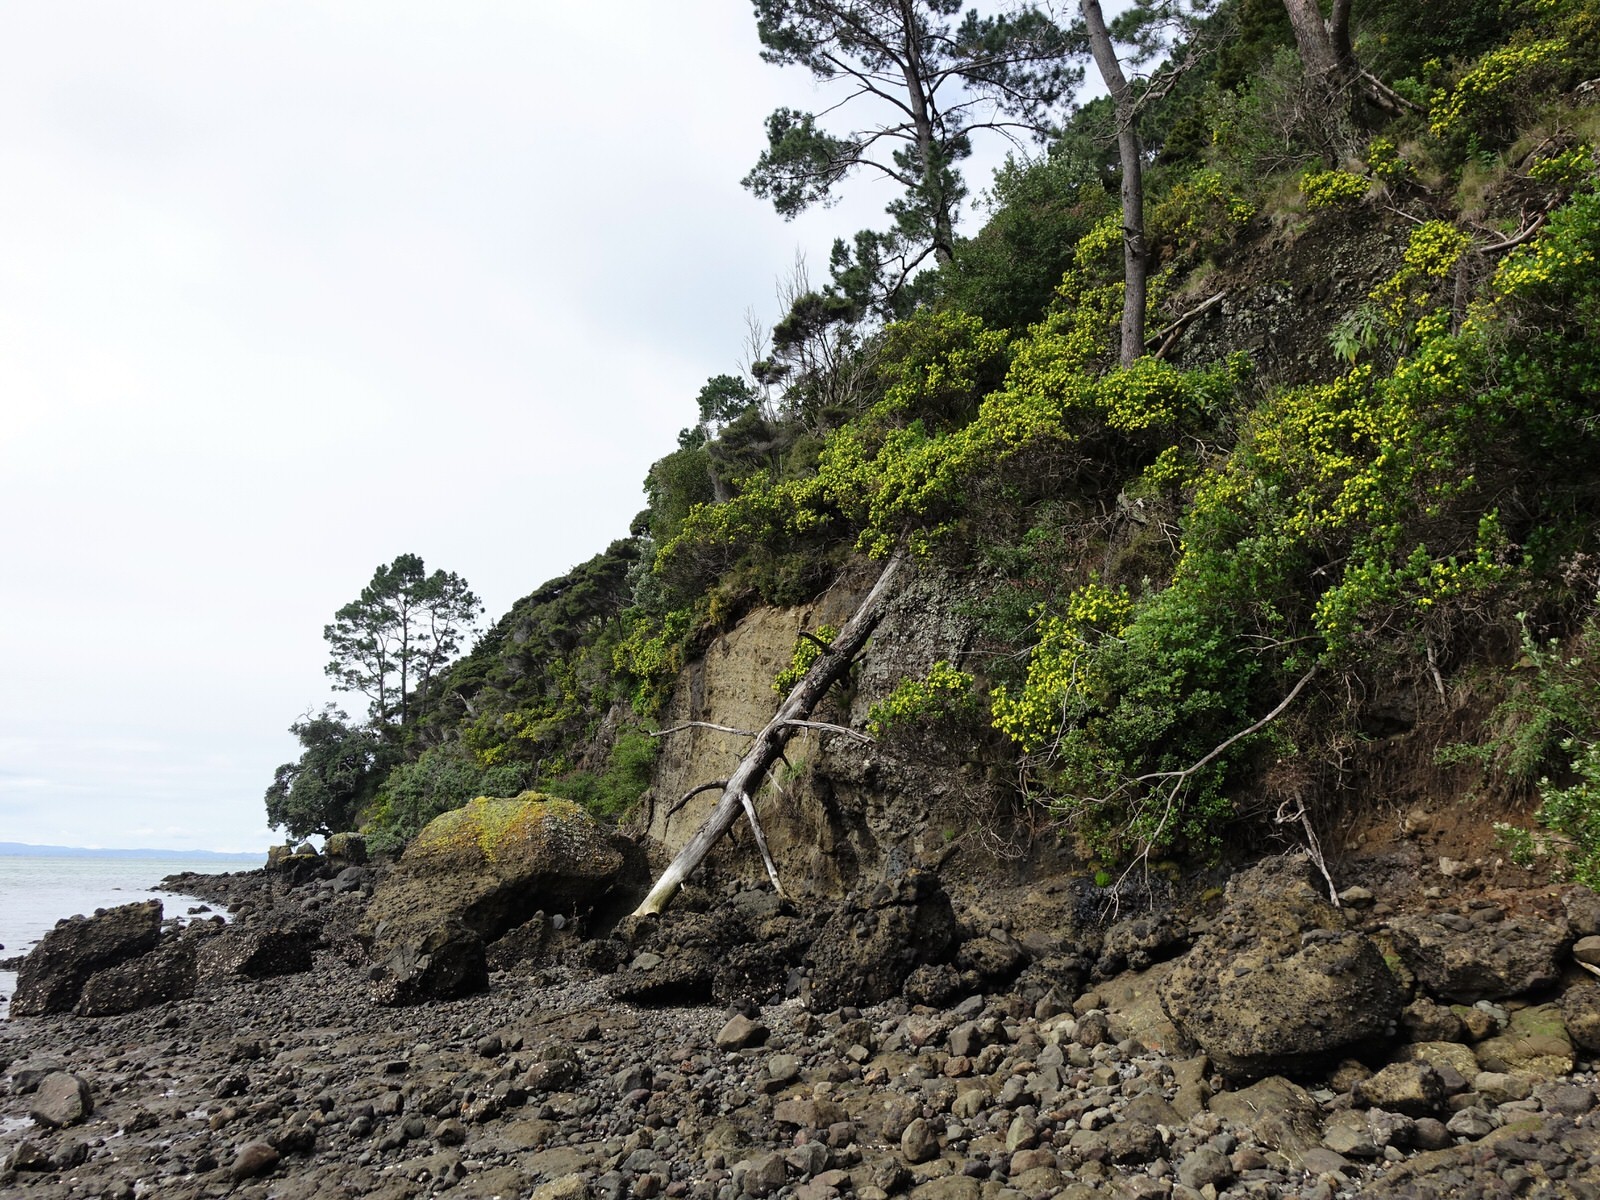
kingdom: Plantae
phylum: Tracheophyta
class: Magnoliopsida
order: Asterales
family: Asteraceae
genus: Osteospermum
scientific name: Osteospermum moniliferum
